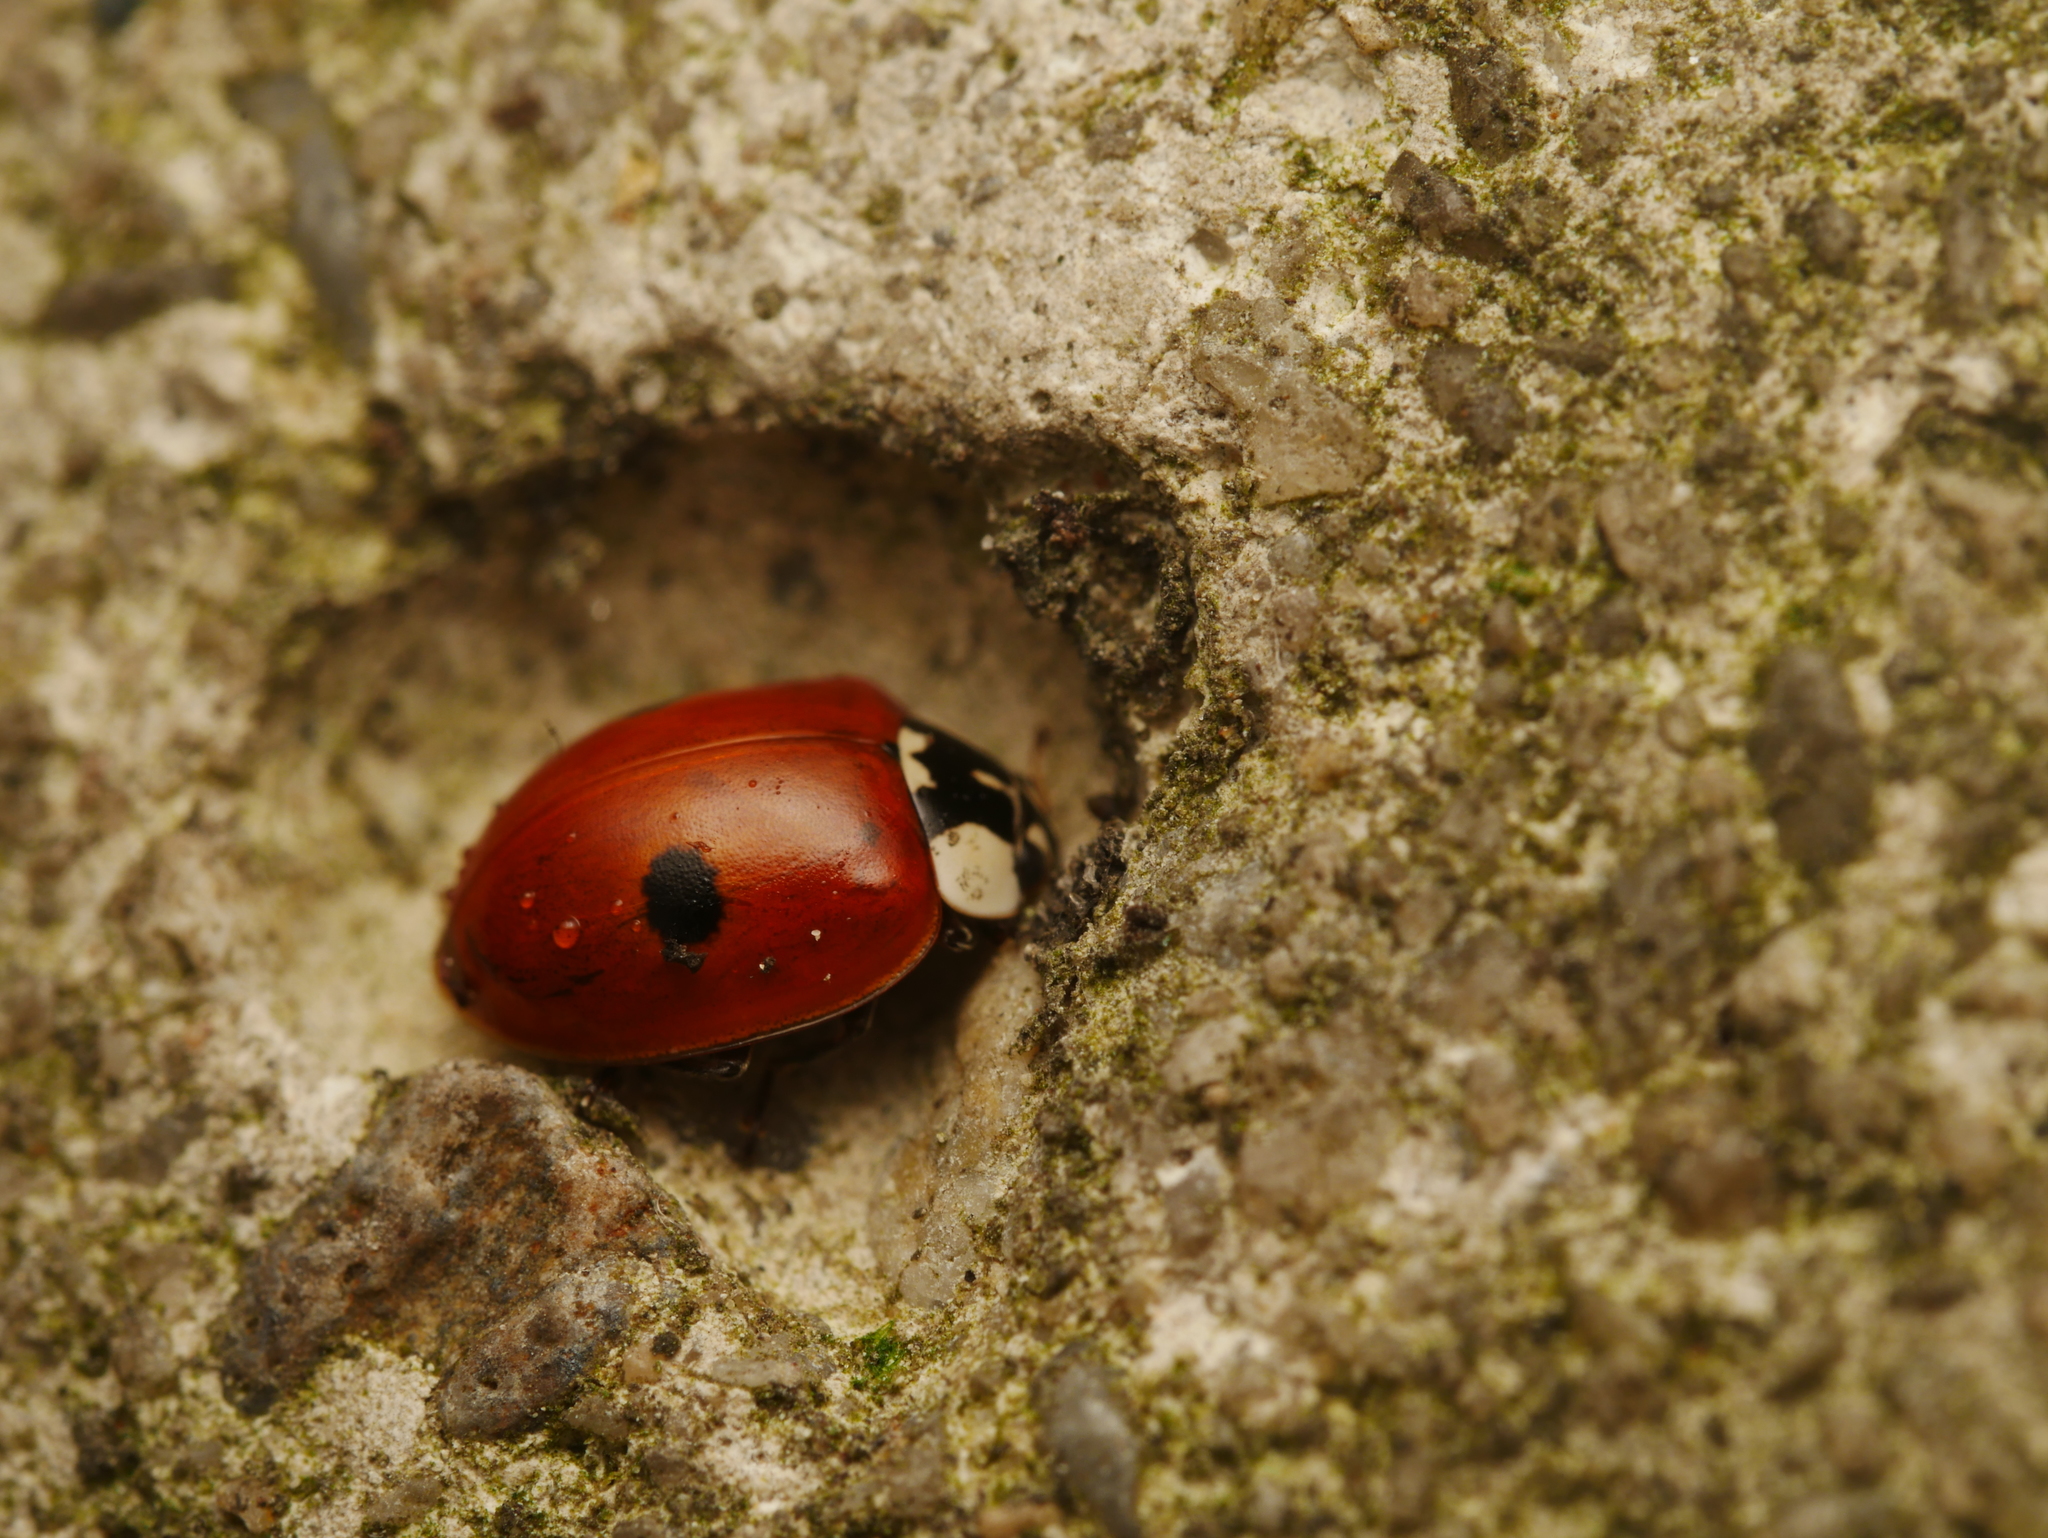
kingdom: Animalia
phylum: Arthropoda
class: Insecta
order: Coleoptera
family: Coccinellidae
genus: Adalia
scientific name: Adalia bipunctata
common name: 2-spot ladybird
